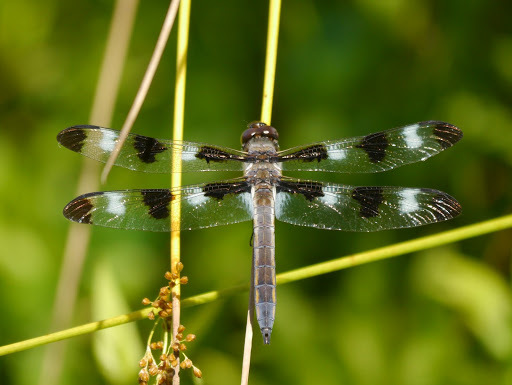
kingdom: Animalia
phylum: Arthropoda
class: Insecta
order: Odonata
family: Libellulidae
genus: Libellula
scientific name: Libellula pulchella
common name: Twelve-spotted skimmer
